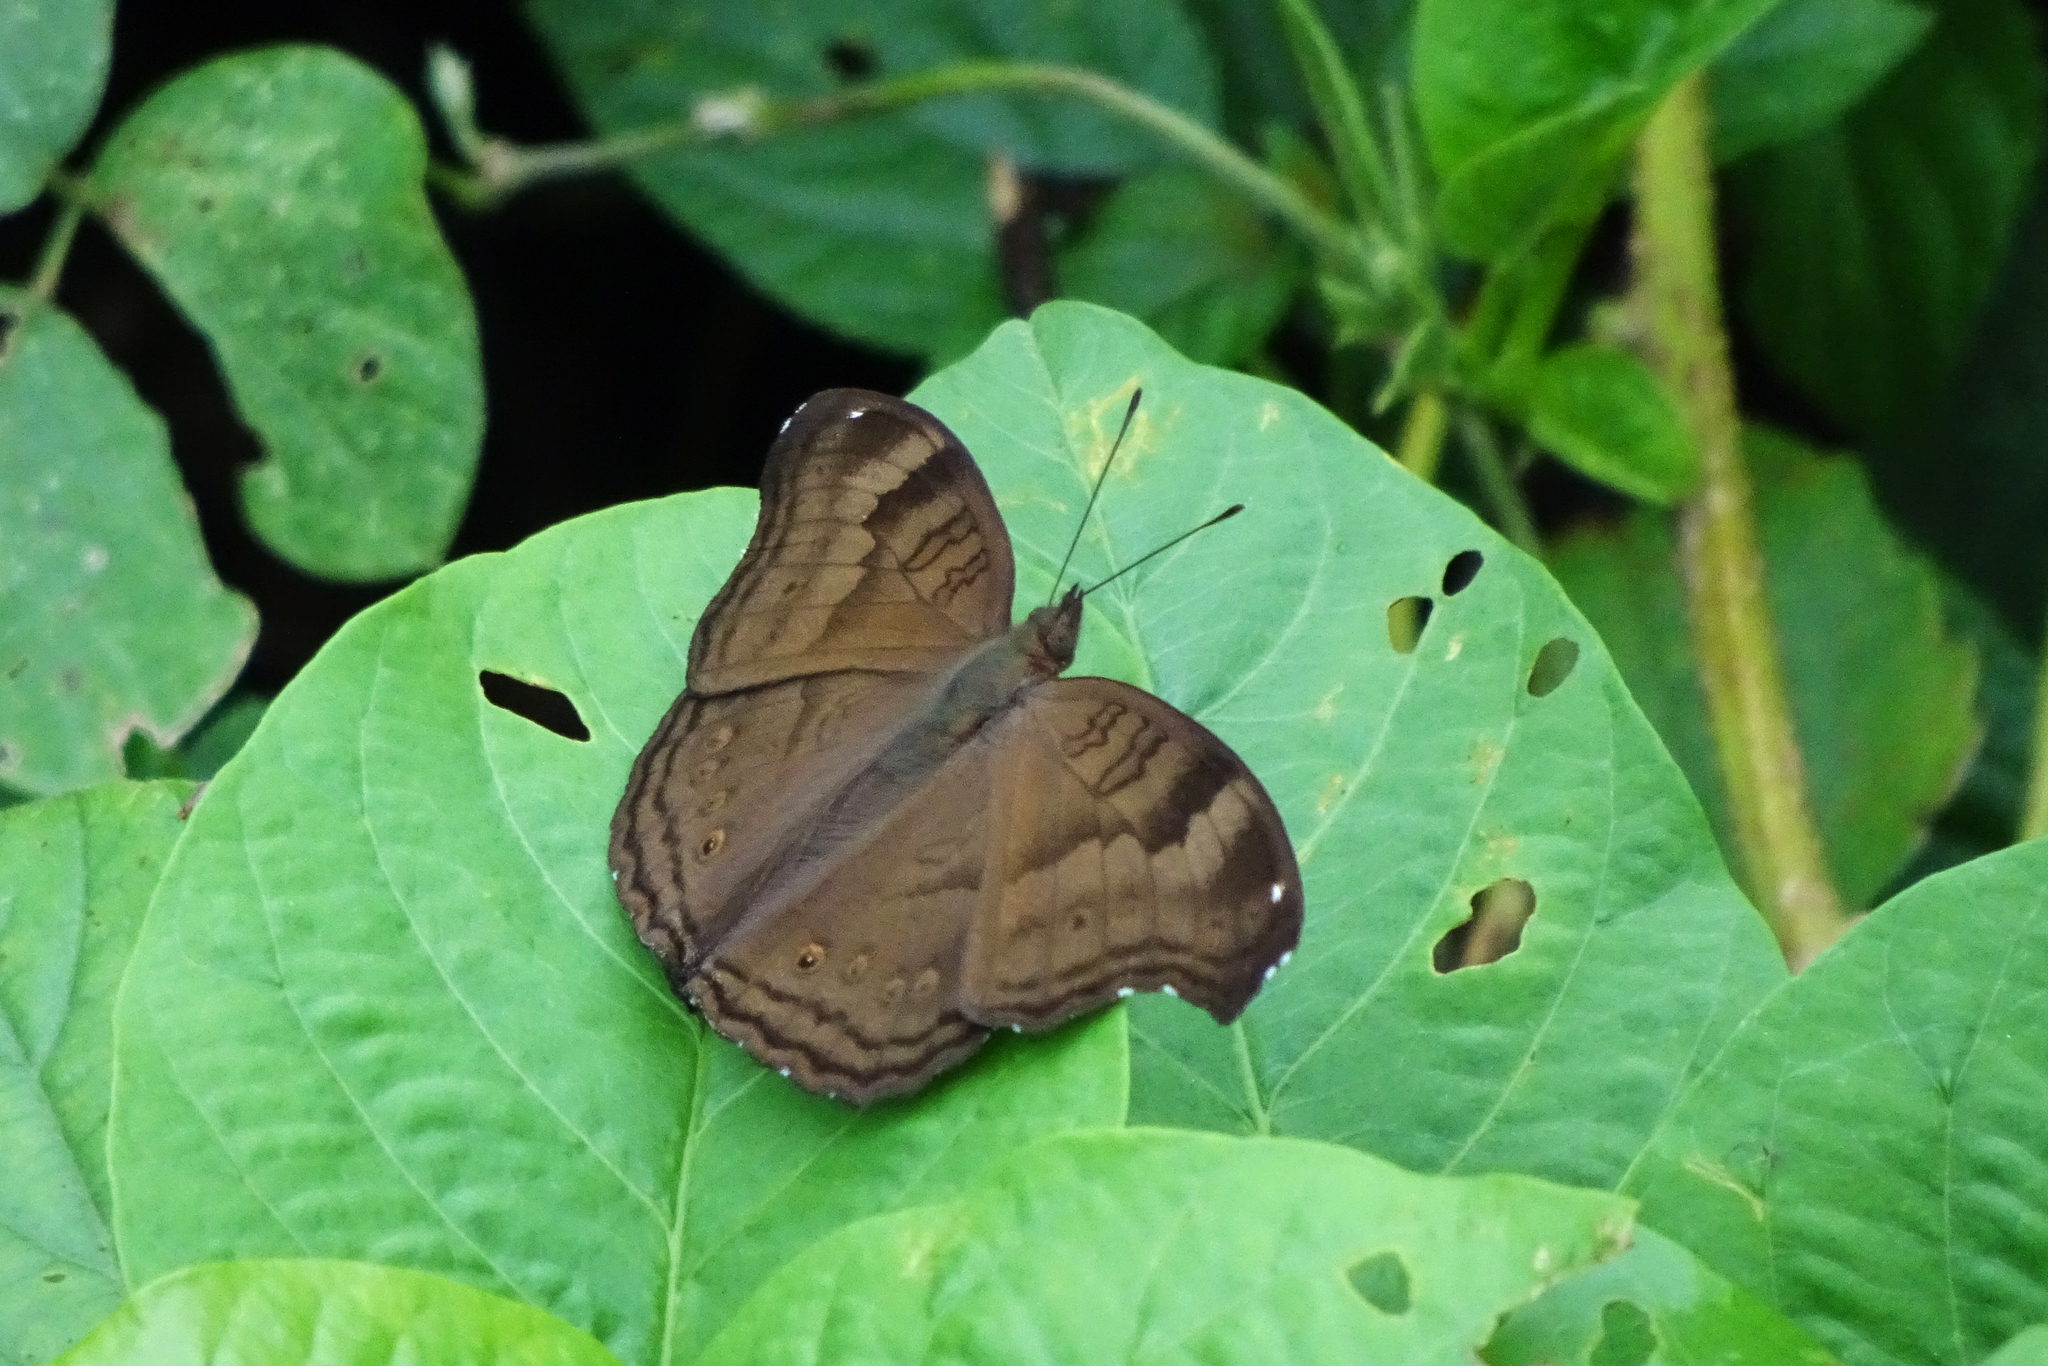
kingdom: Animalia
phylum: Arthropoda
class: Insecta
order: Lepidoptera
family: Nymphalidae
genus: Junonia
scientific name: Junonia iphita
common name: Chocolate pansy
